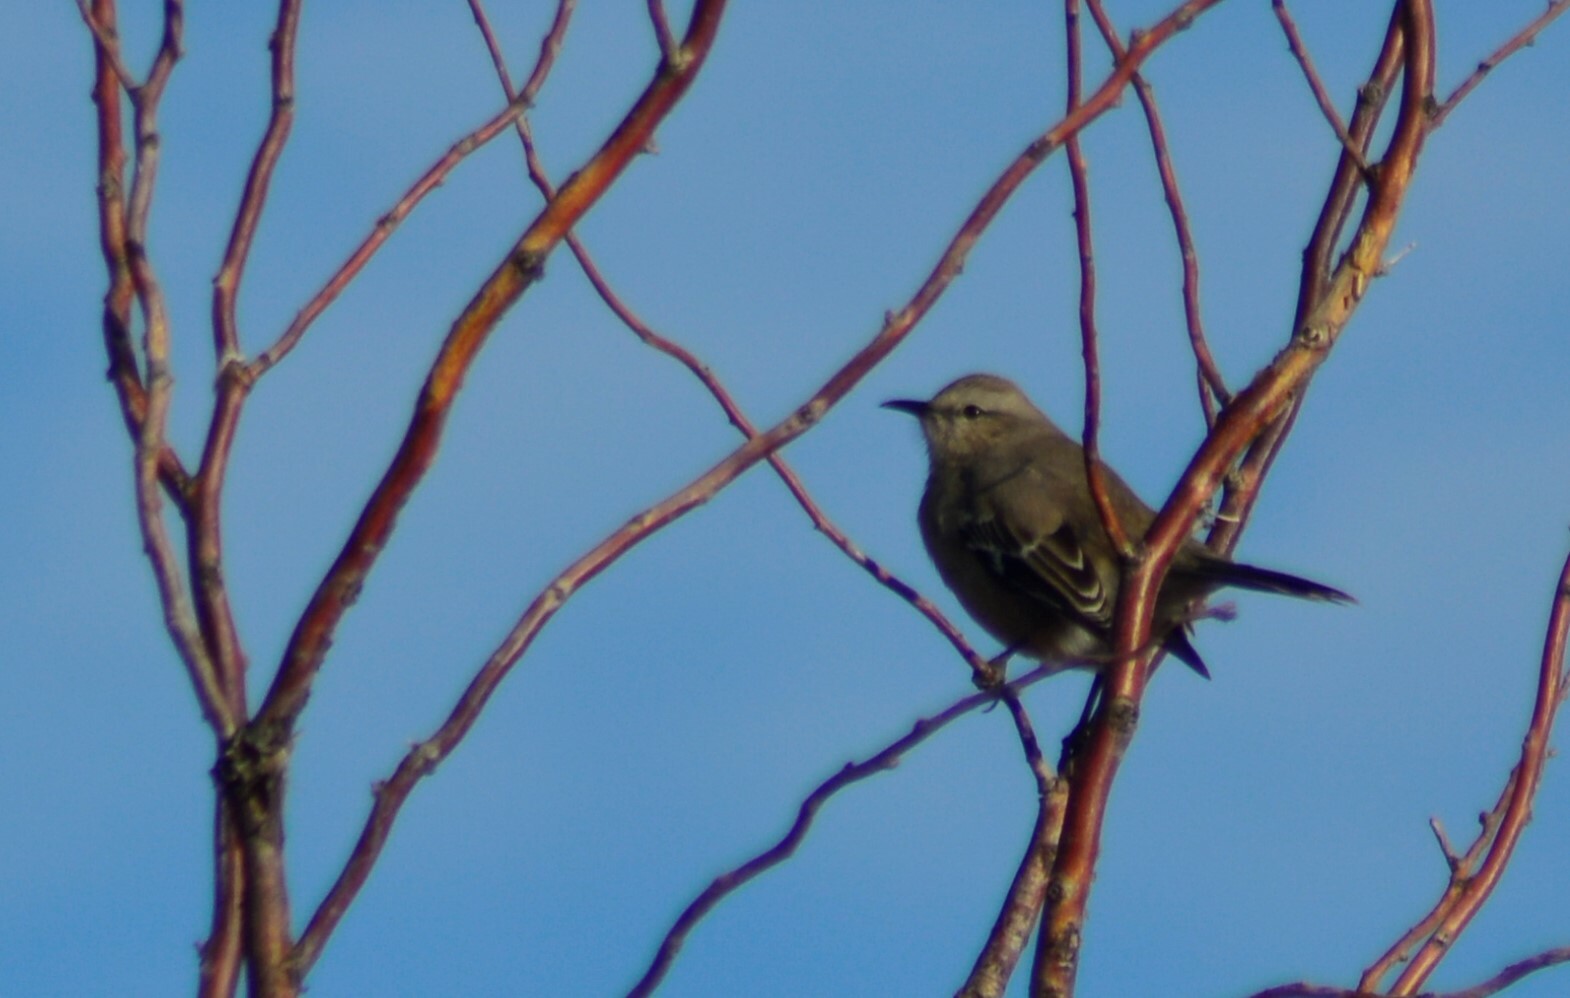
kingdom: Animalia
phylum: Chordata
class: Aves
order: Passeriformes
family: Mimidae
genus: Mimus
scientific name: Mimus patagonicus
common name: Patagonian mockingbird
